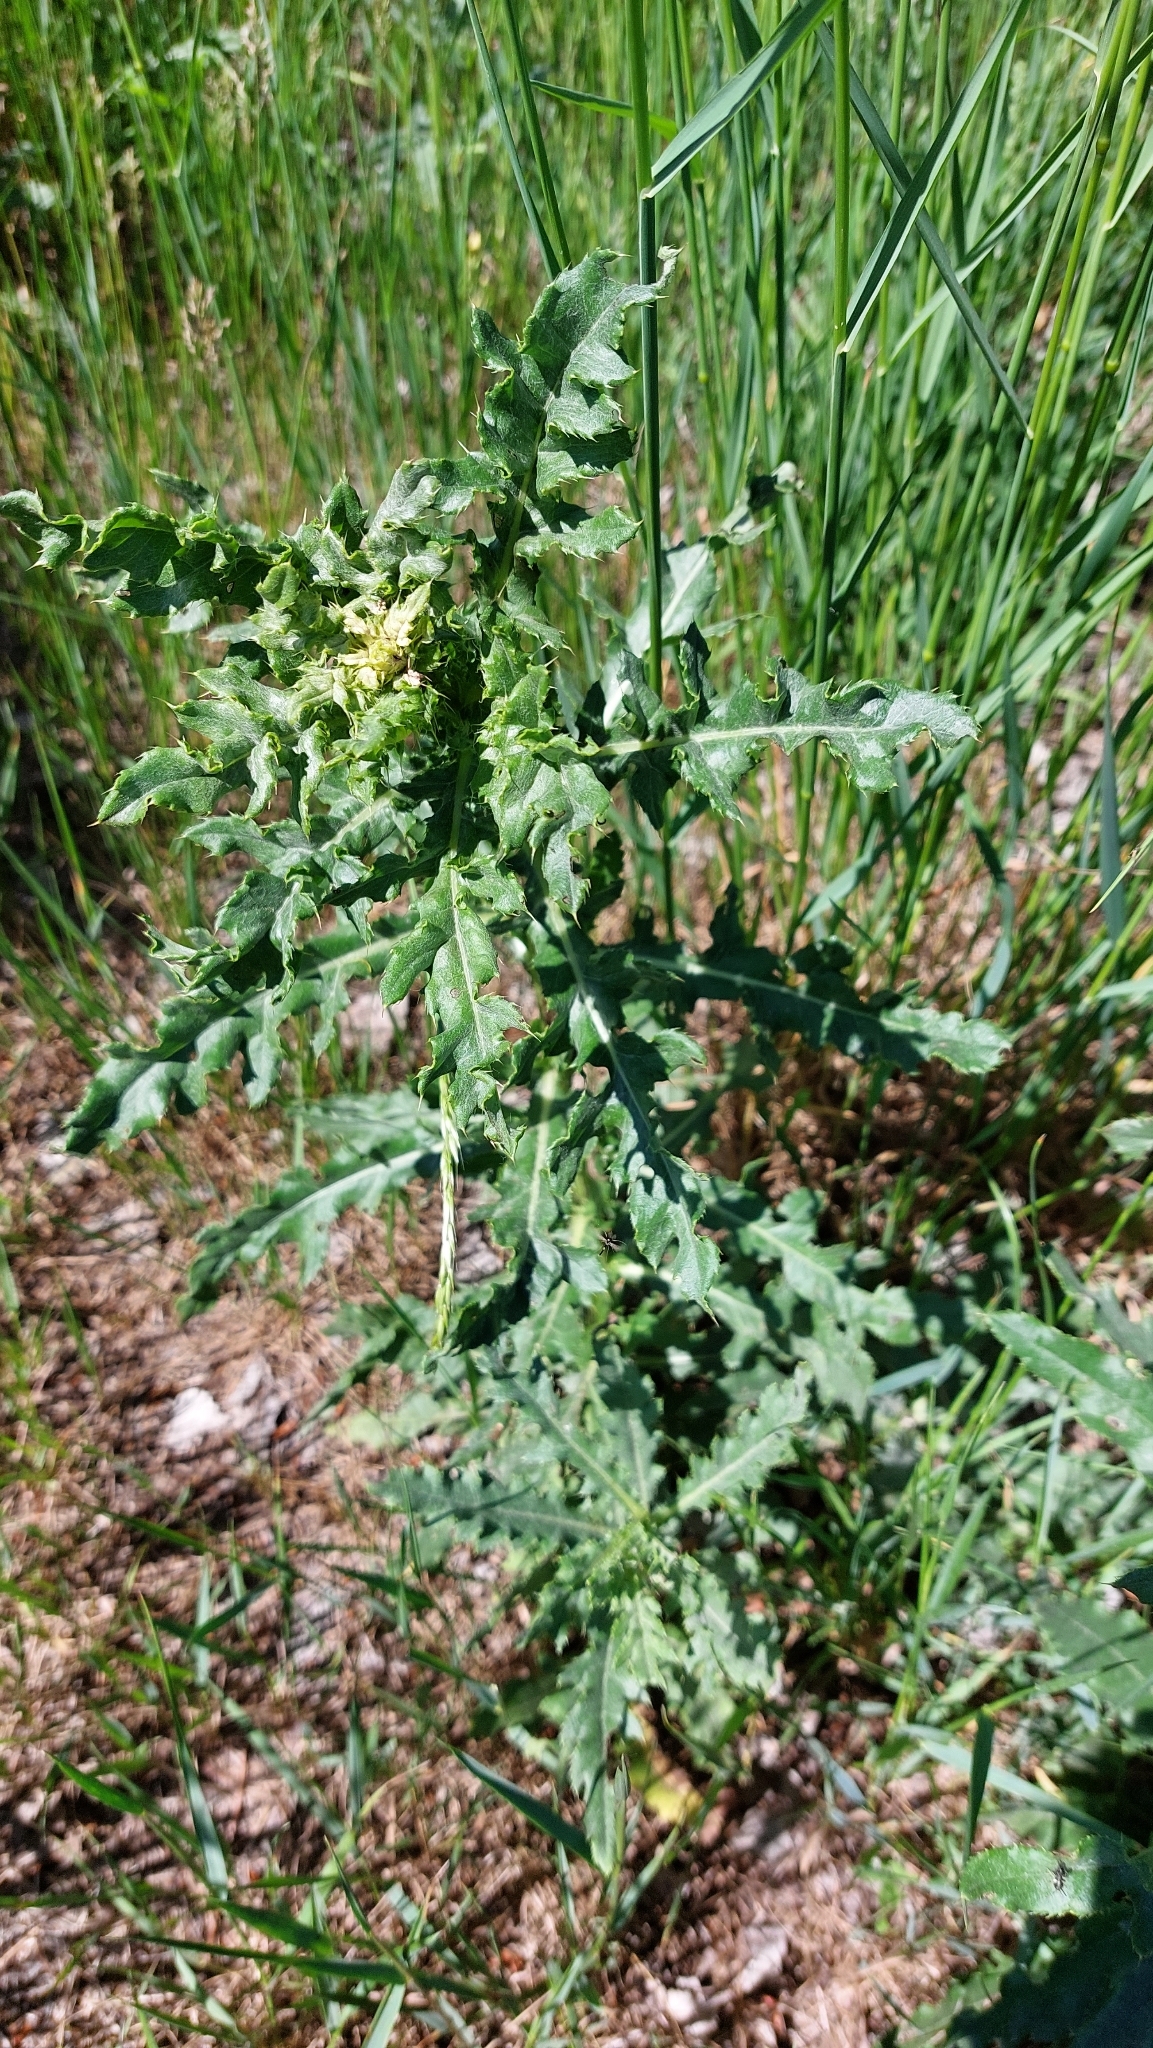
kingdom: Plantae
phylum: Tracheophyta
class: Magnoliopsida
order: Asterales
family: Asteraceae
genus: Cirsium
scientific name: Cirsium arvense
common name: Creeping thistle
